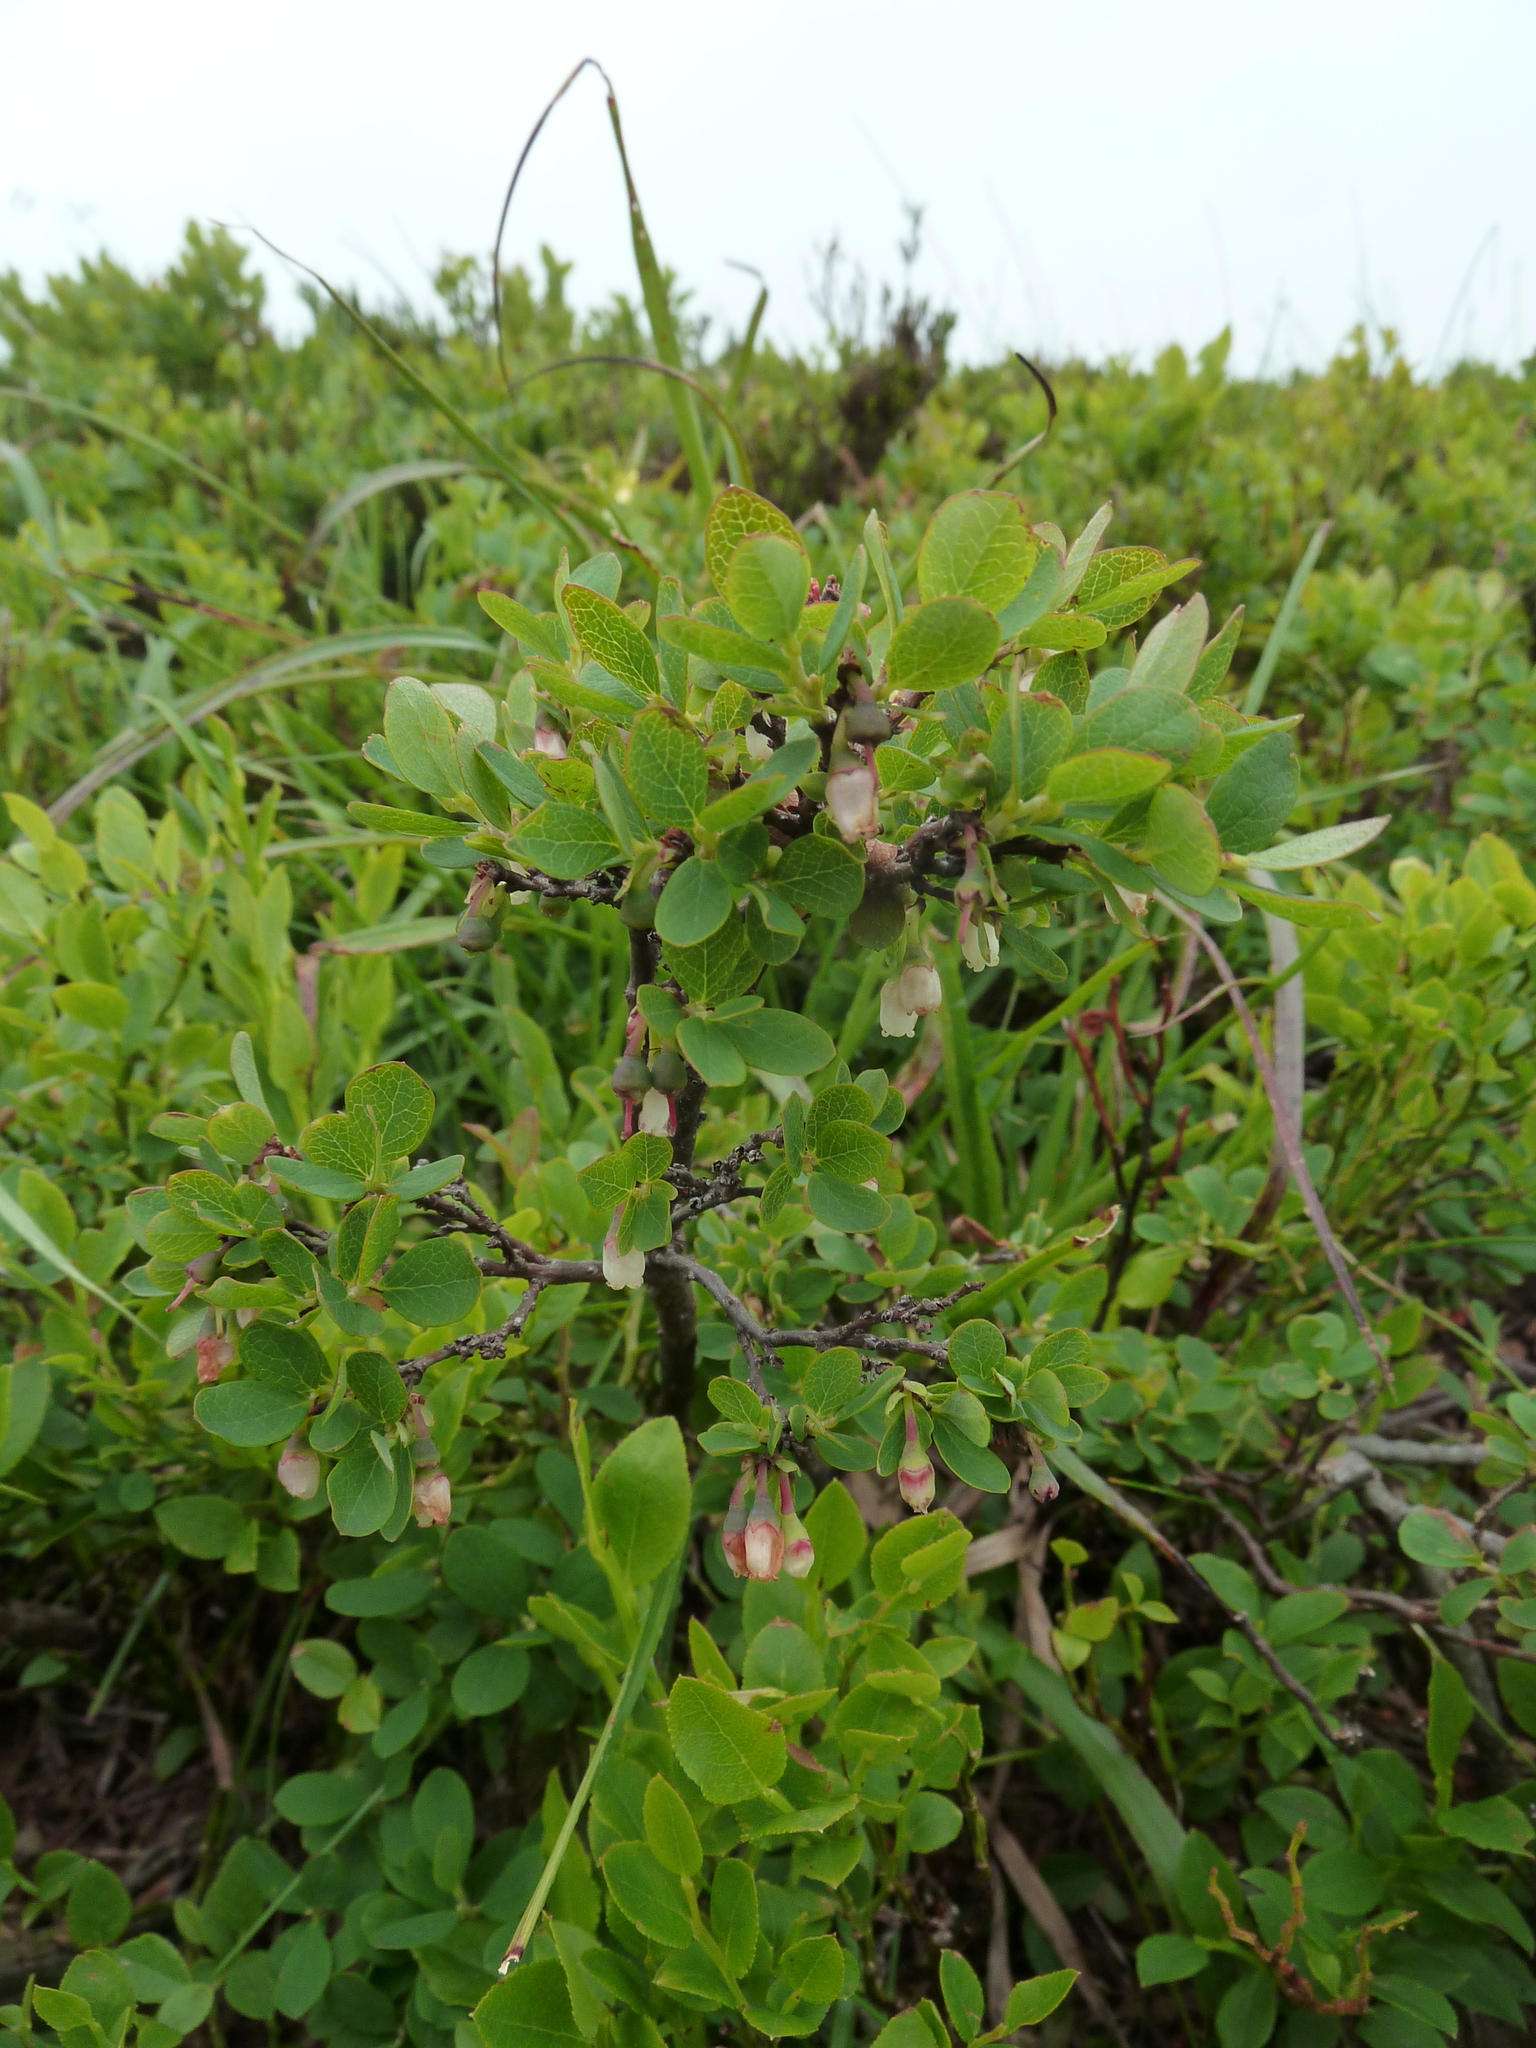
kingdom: Plantae
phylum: Tracheophyta
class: Magnoliopsida
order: Ericales
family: Ericaceae
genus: Vaccinium
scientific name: Vaccinium uliginosum
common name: Bog bilberry
